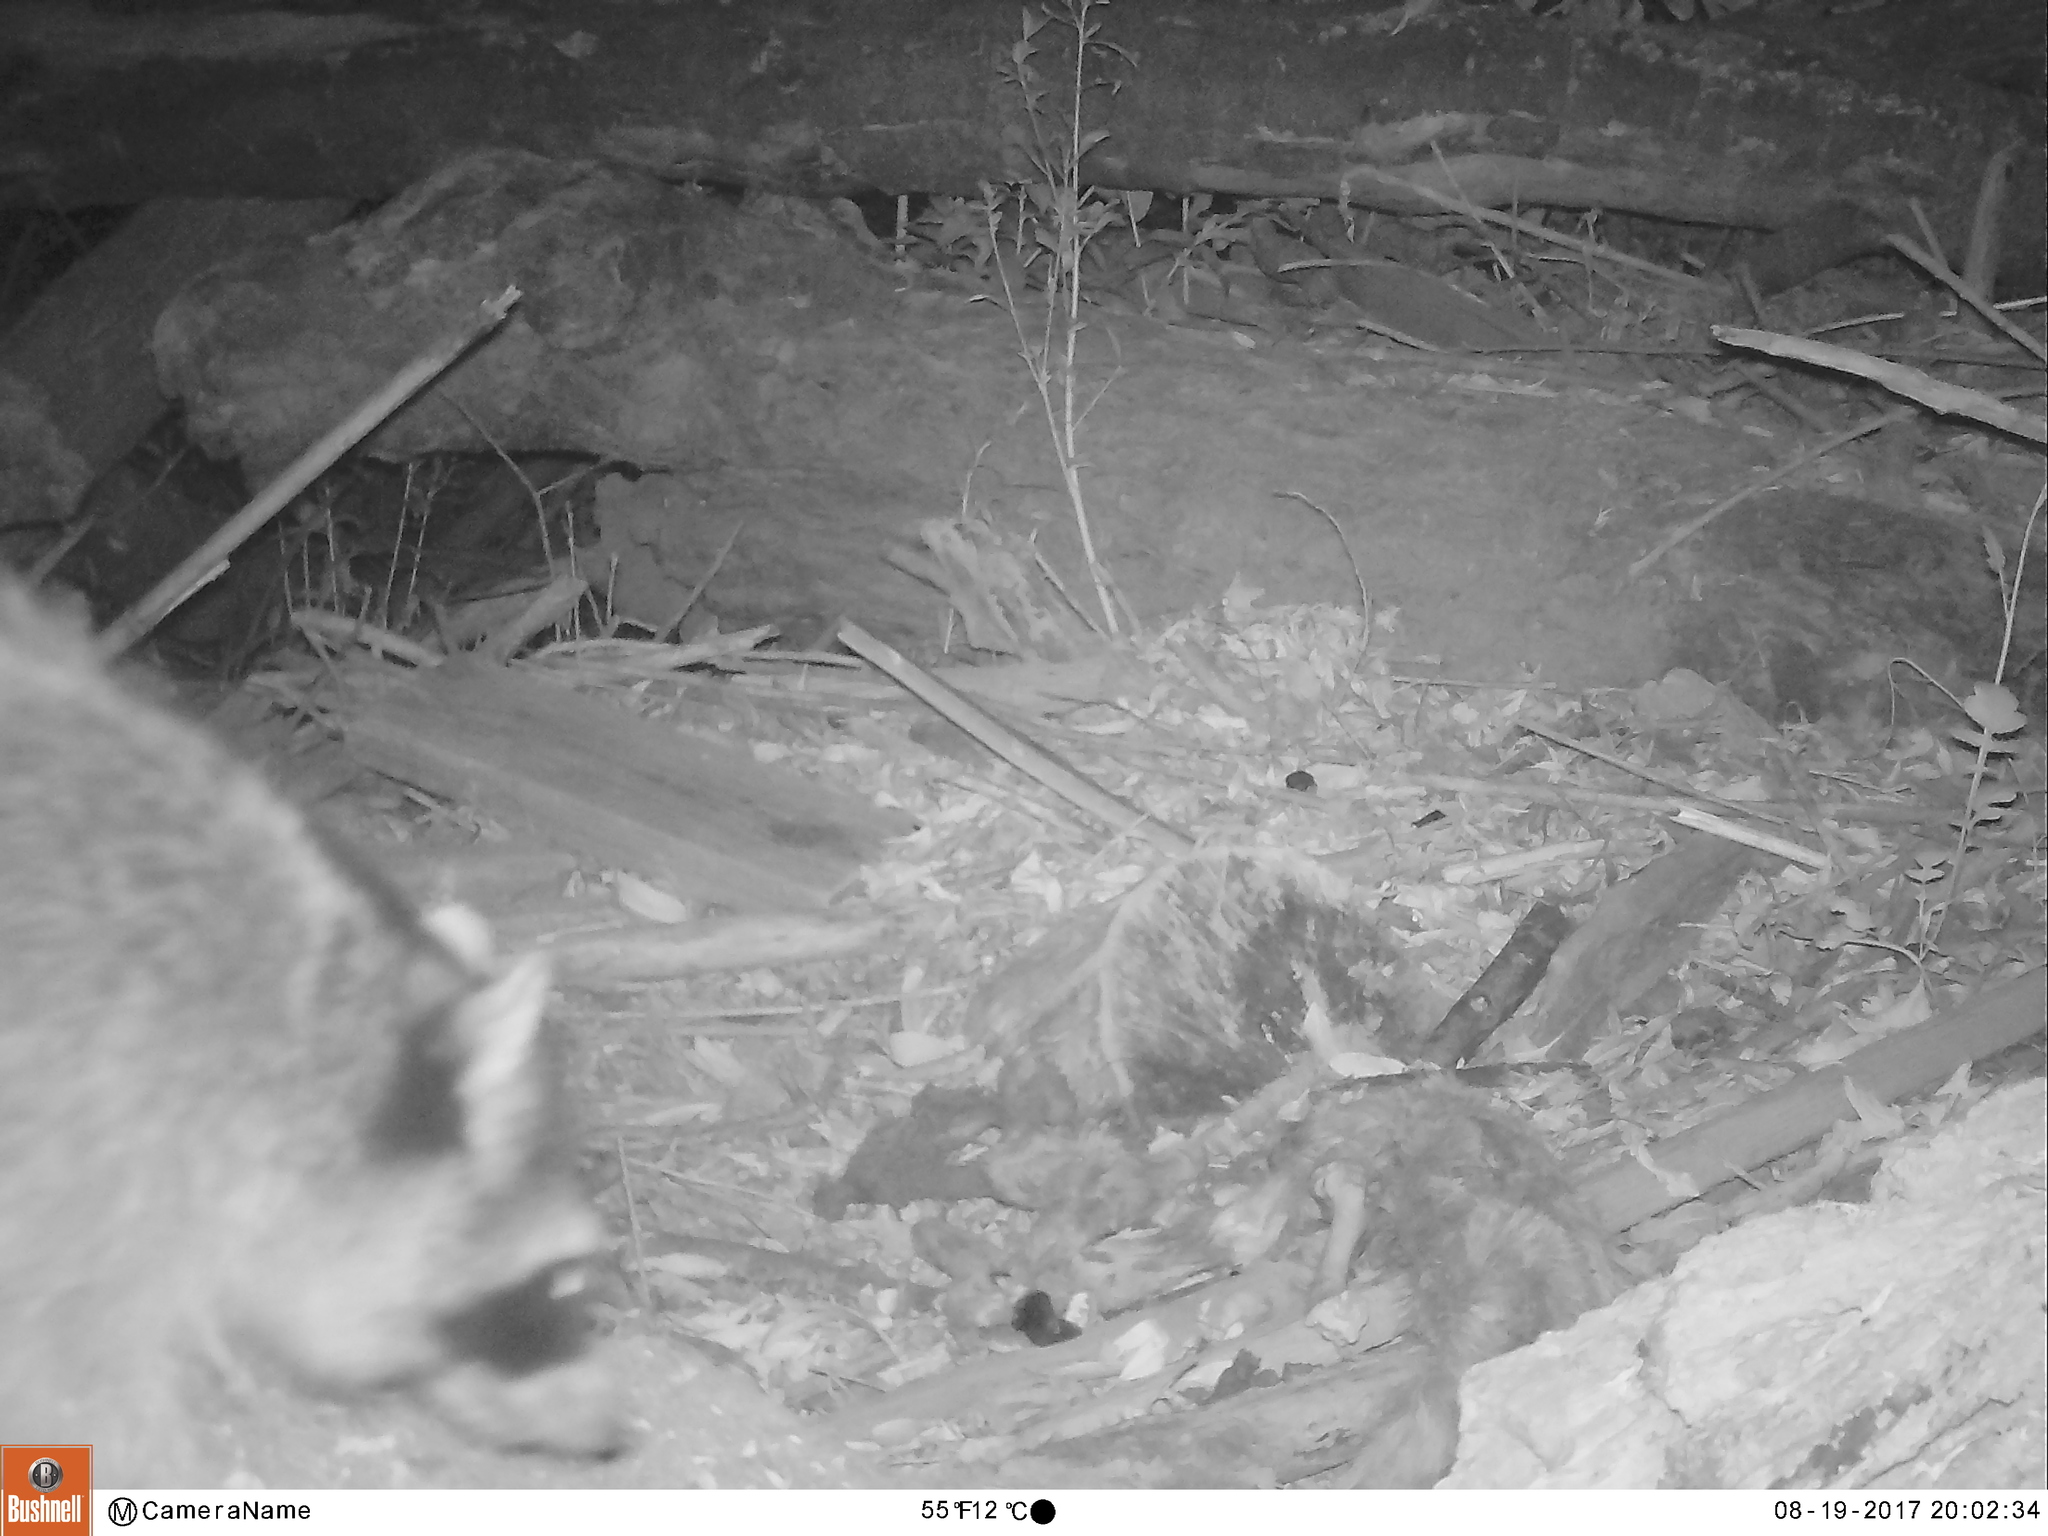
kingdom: Animalia
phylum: Chordata
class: Mammalia
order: Carnivora
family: Procyonidae
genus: Procyon
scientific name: Procyon lotor
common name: Raccoon
